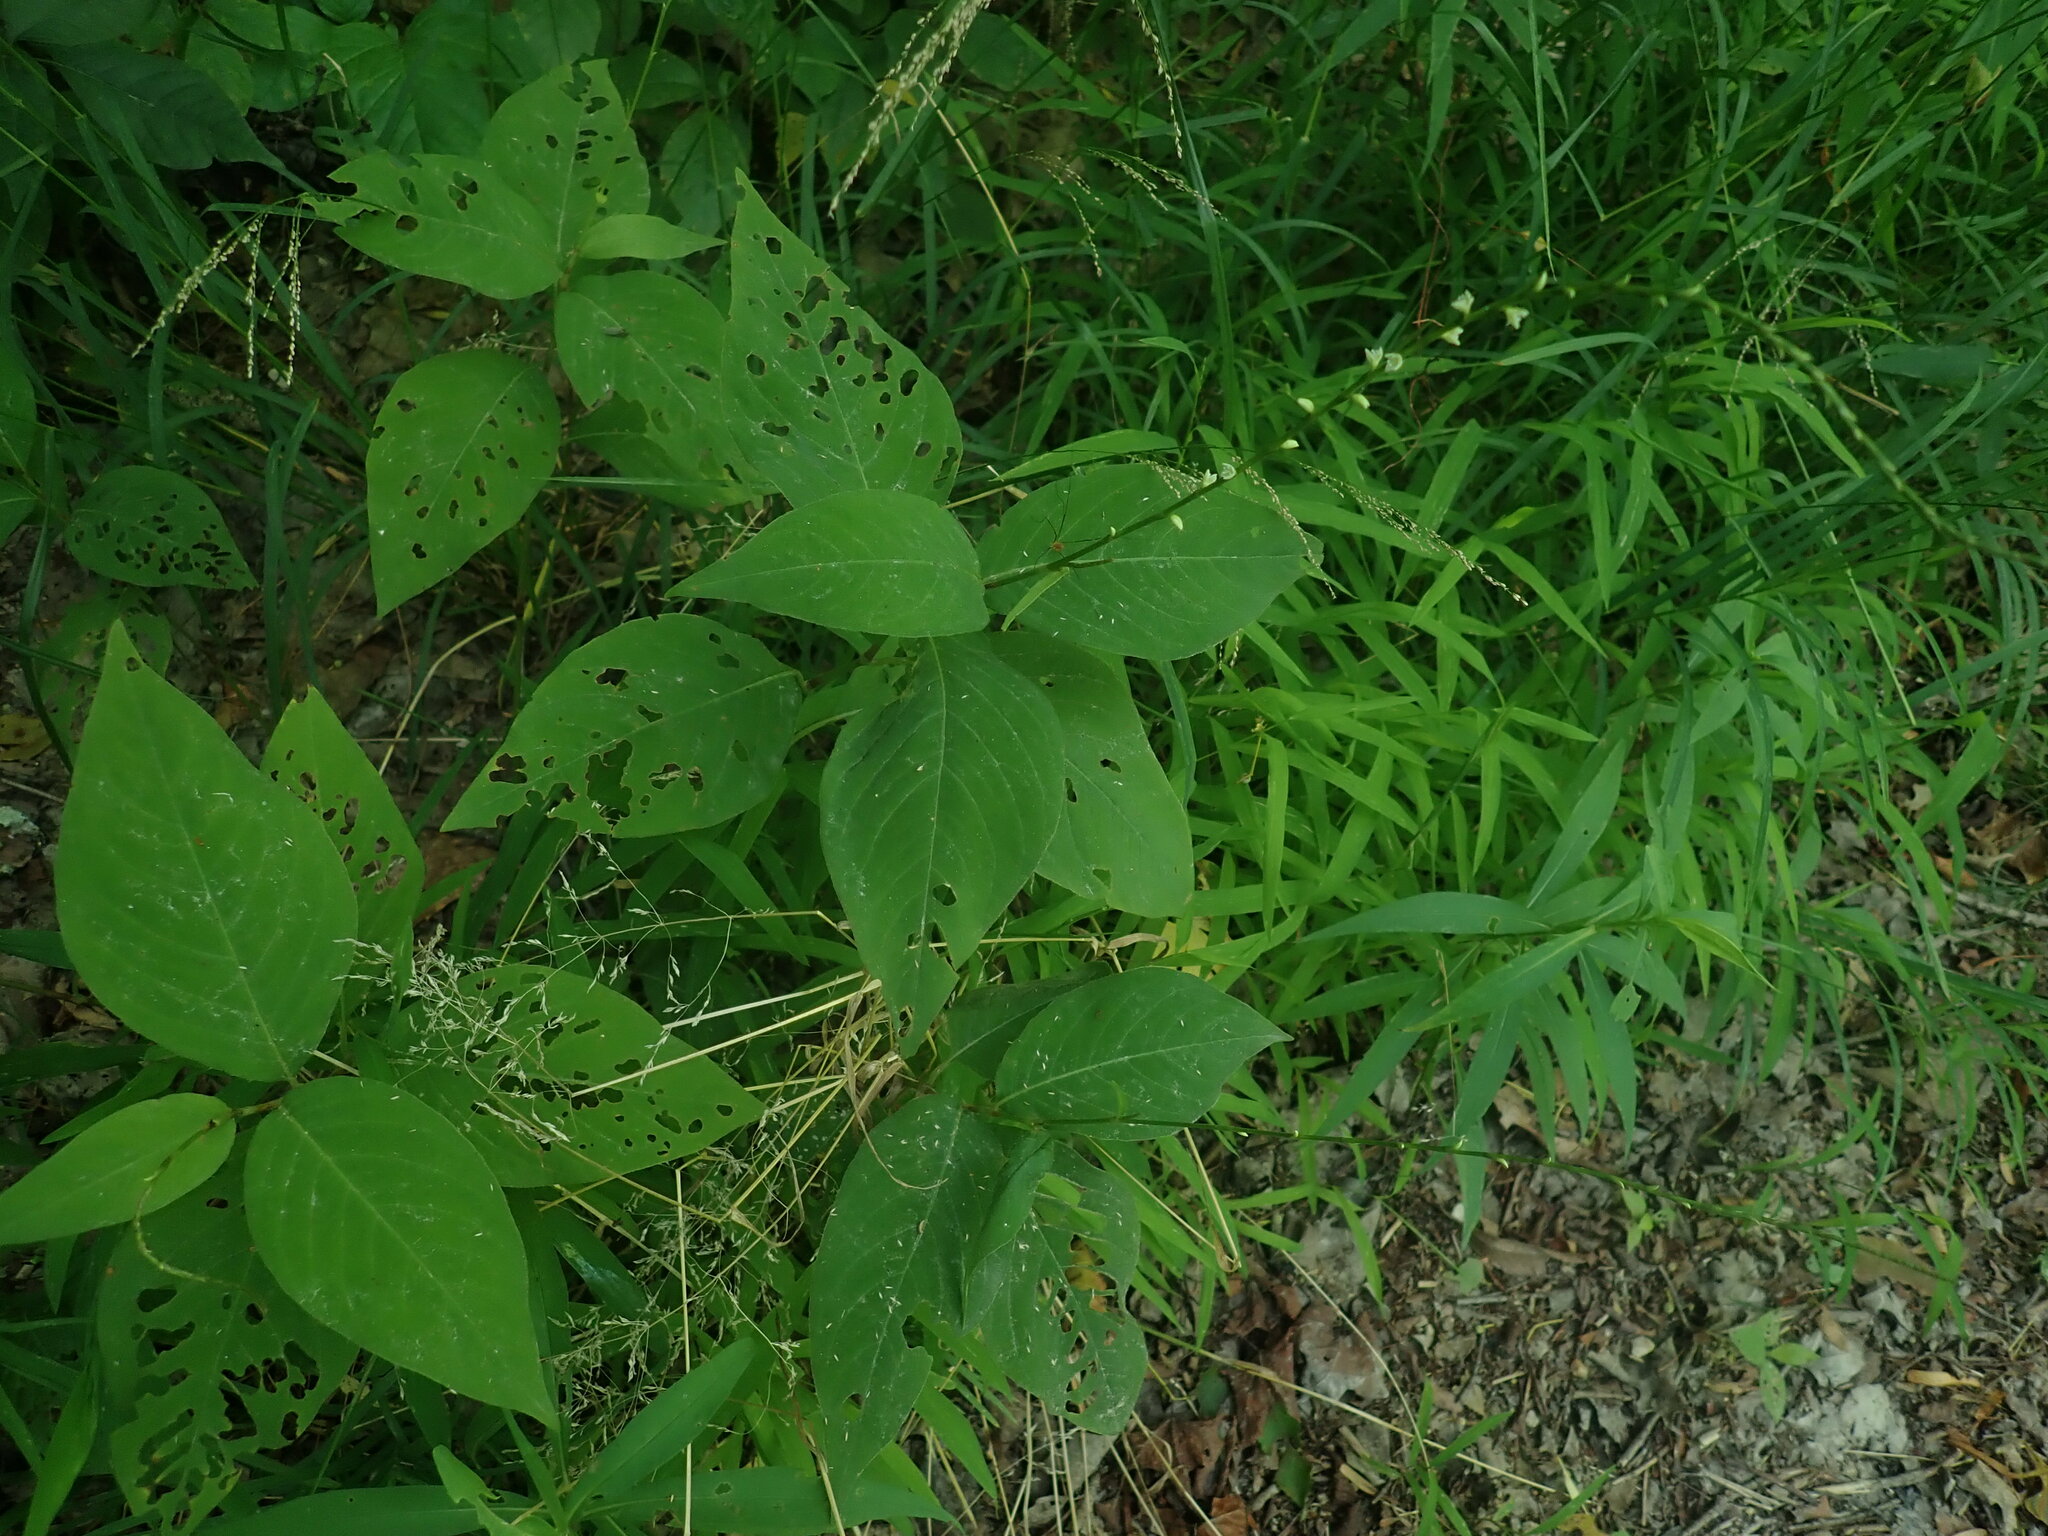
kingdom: Plantae
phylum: Tracheophyta
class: Magnoliopsida
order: Caryophyllales
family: Polygonaceae
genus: Persicaria
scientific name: Persicaria virginiana
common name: Jumpseed
